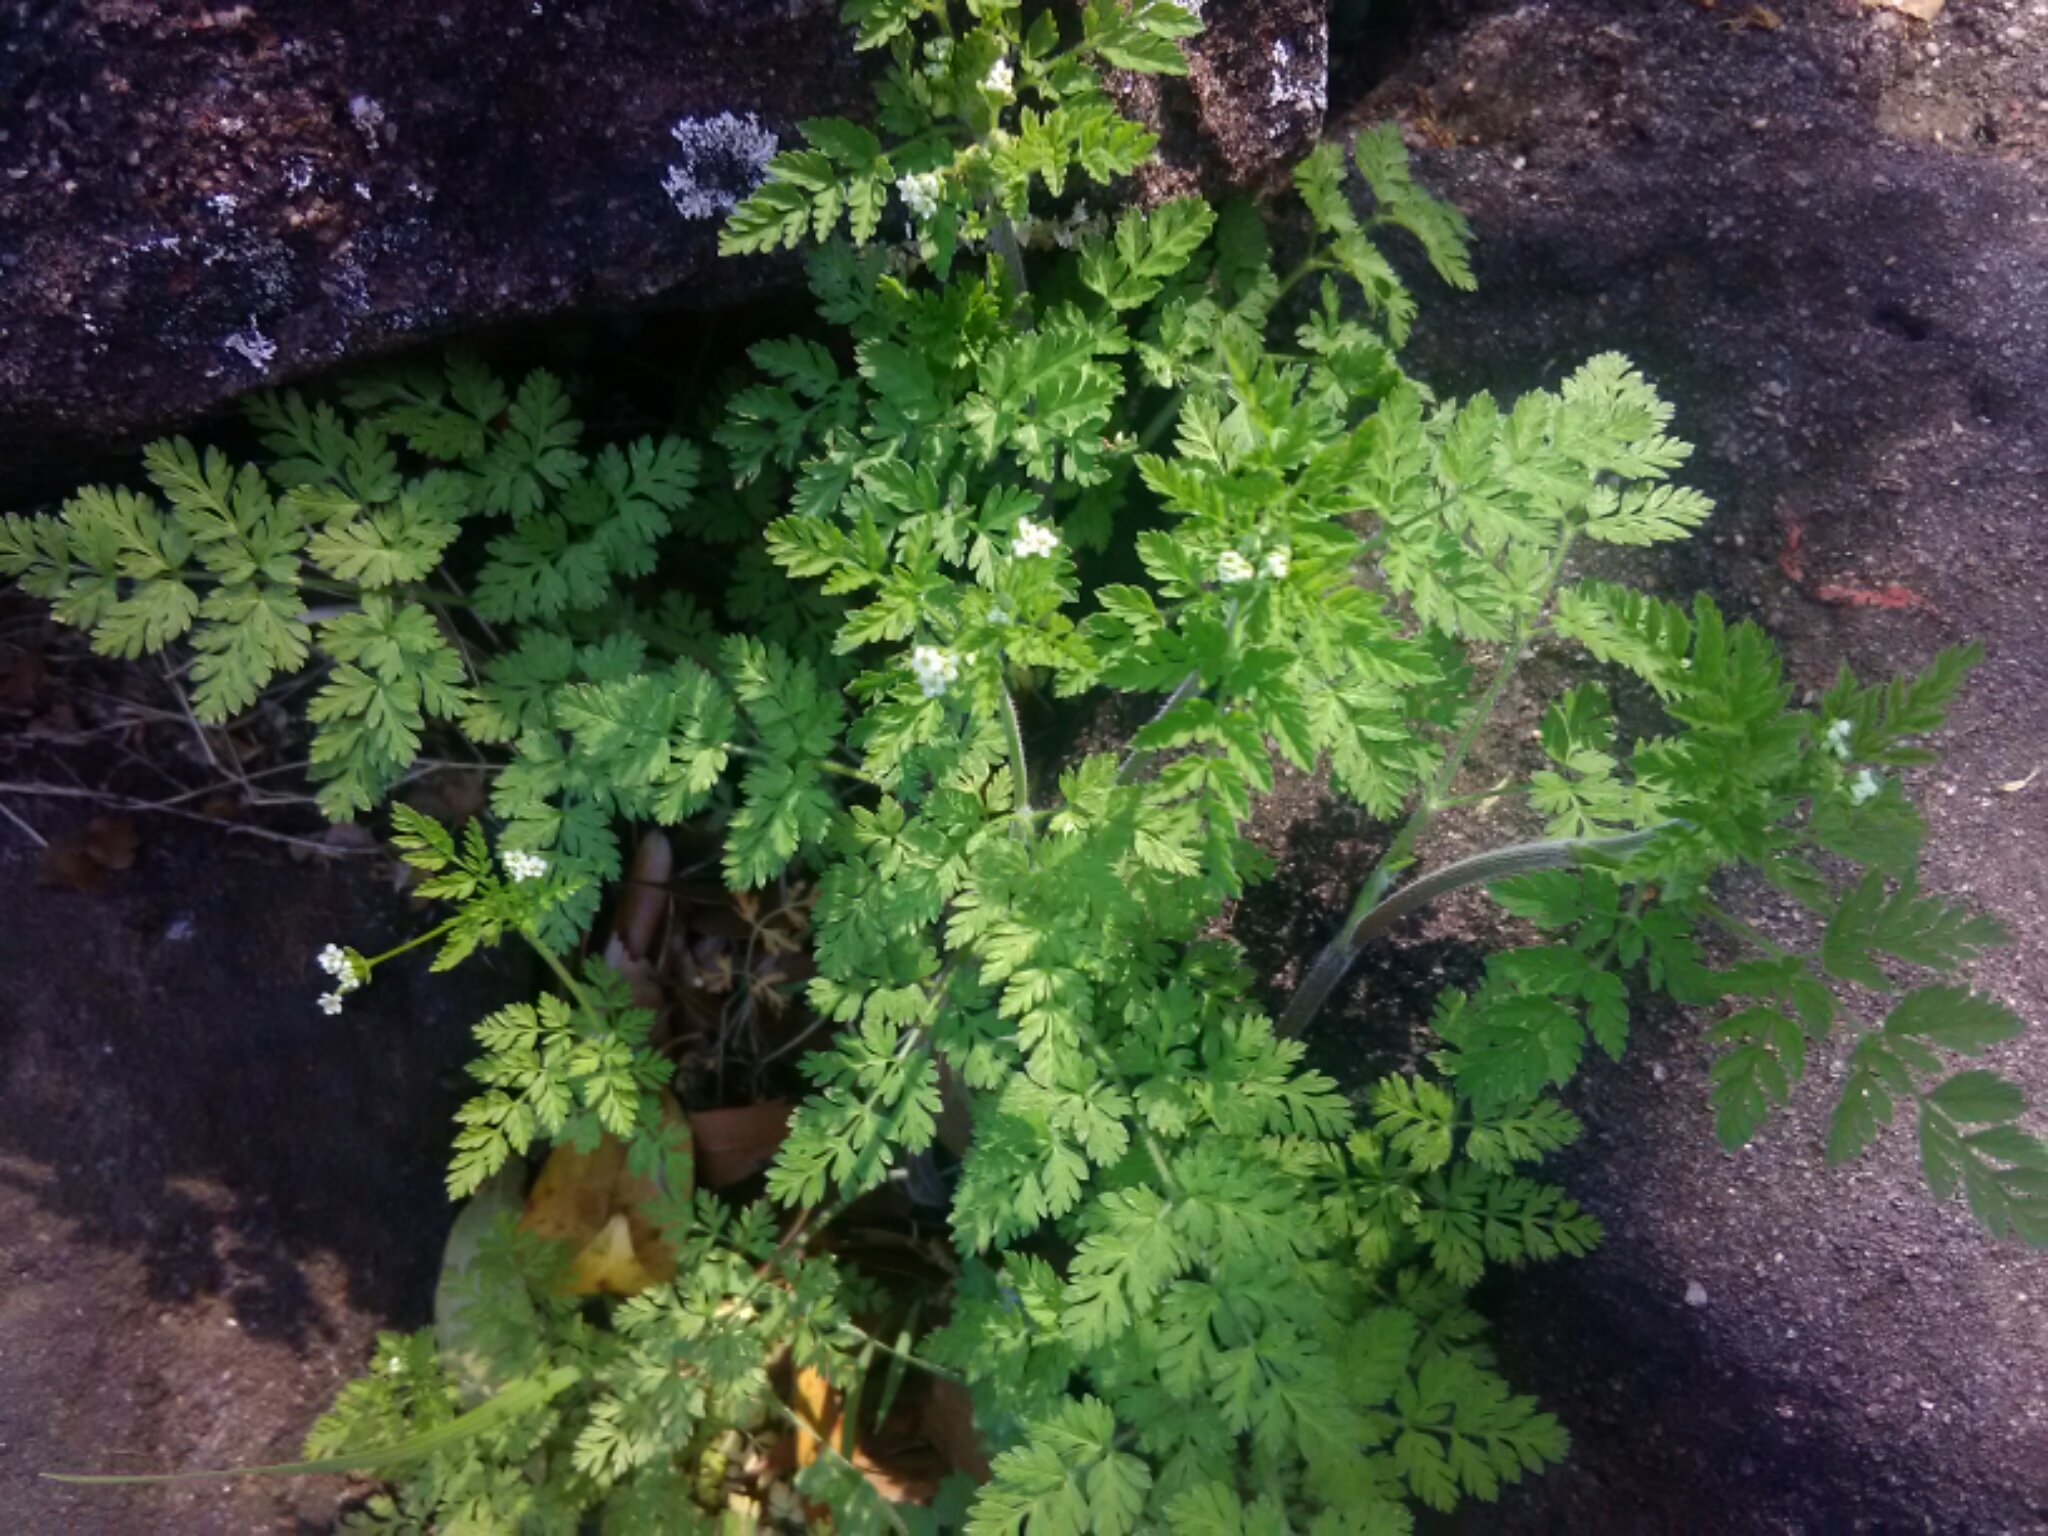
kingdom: Plantae
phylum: Tracheophyta
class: Magnoliopsida
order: Apiales
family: Apiaceae
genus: Chaerophyllum
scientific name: Chaerophyllum tainturieri
